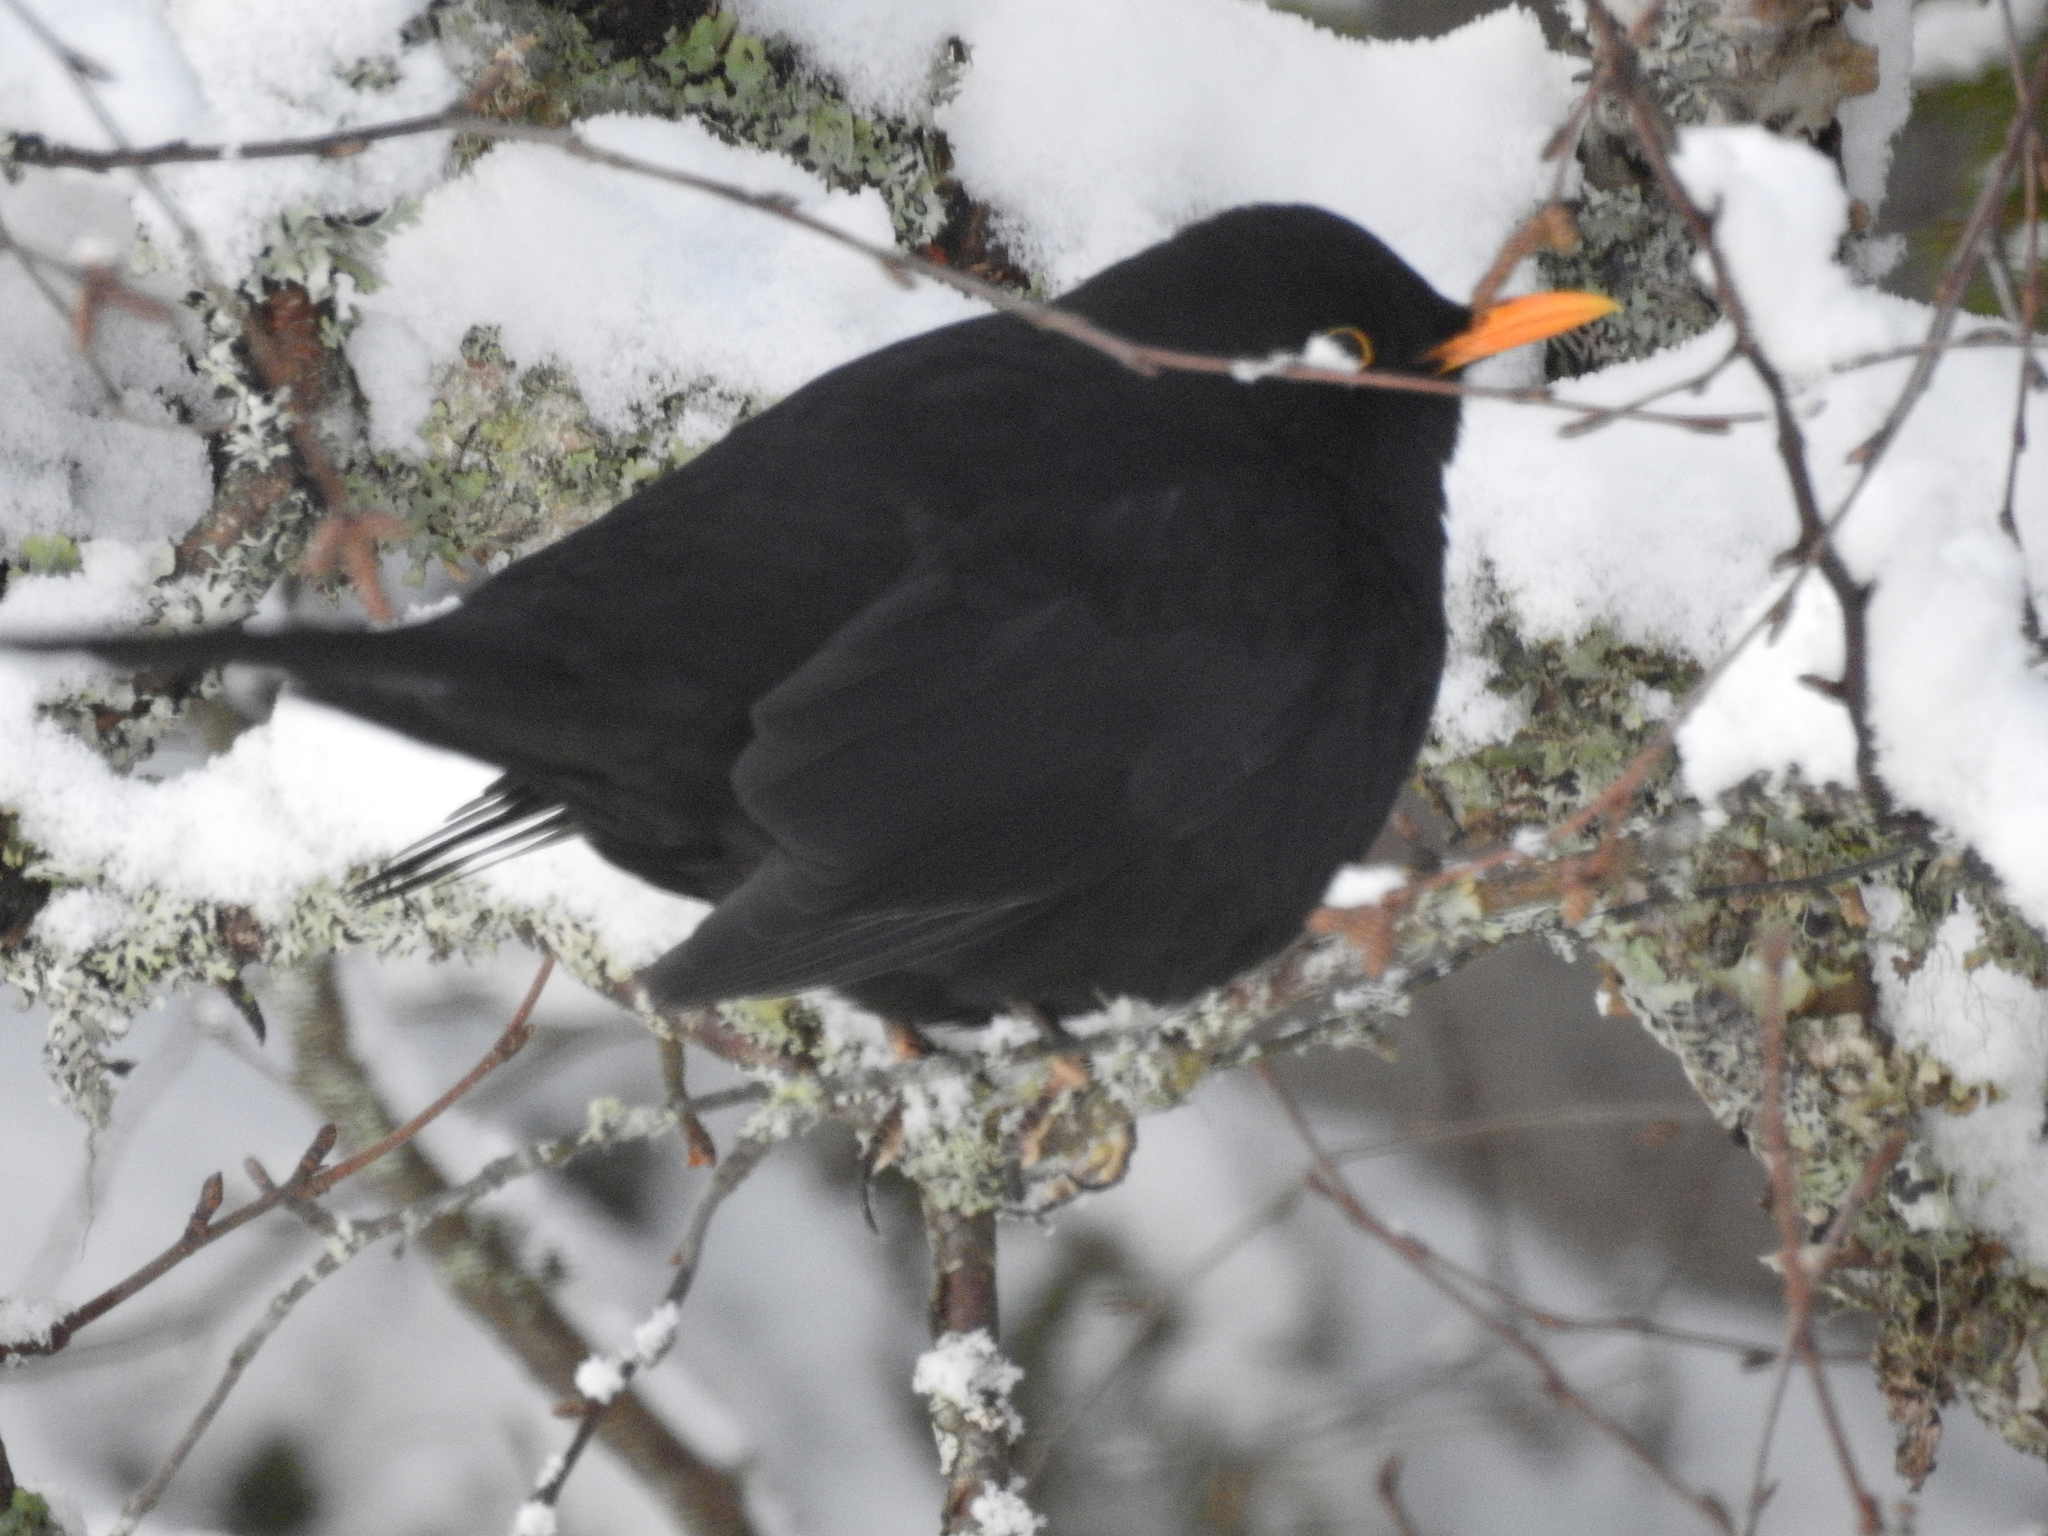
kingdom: Animalia
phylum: Chordata
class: Aves
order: Passeriformes
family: Turdidae
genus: Turdus
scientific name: Turdus merula
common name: Common blackbird
